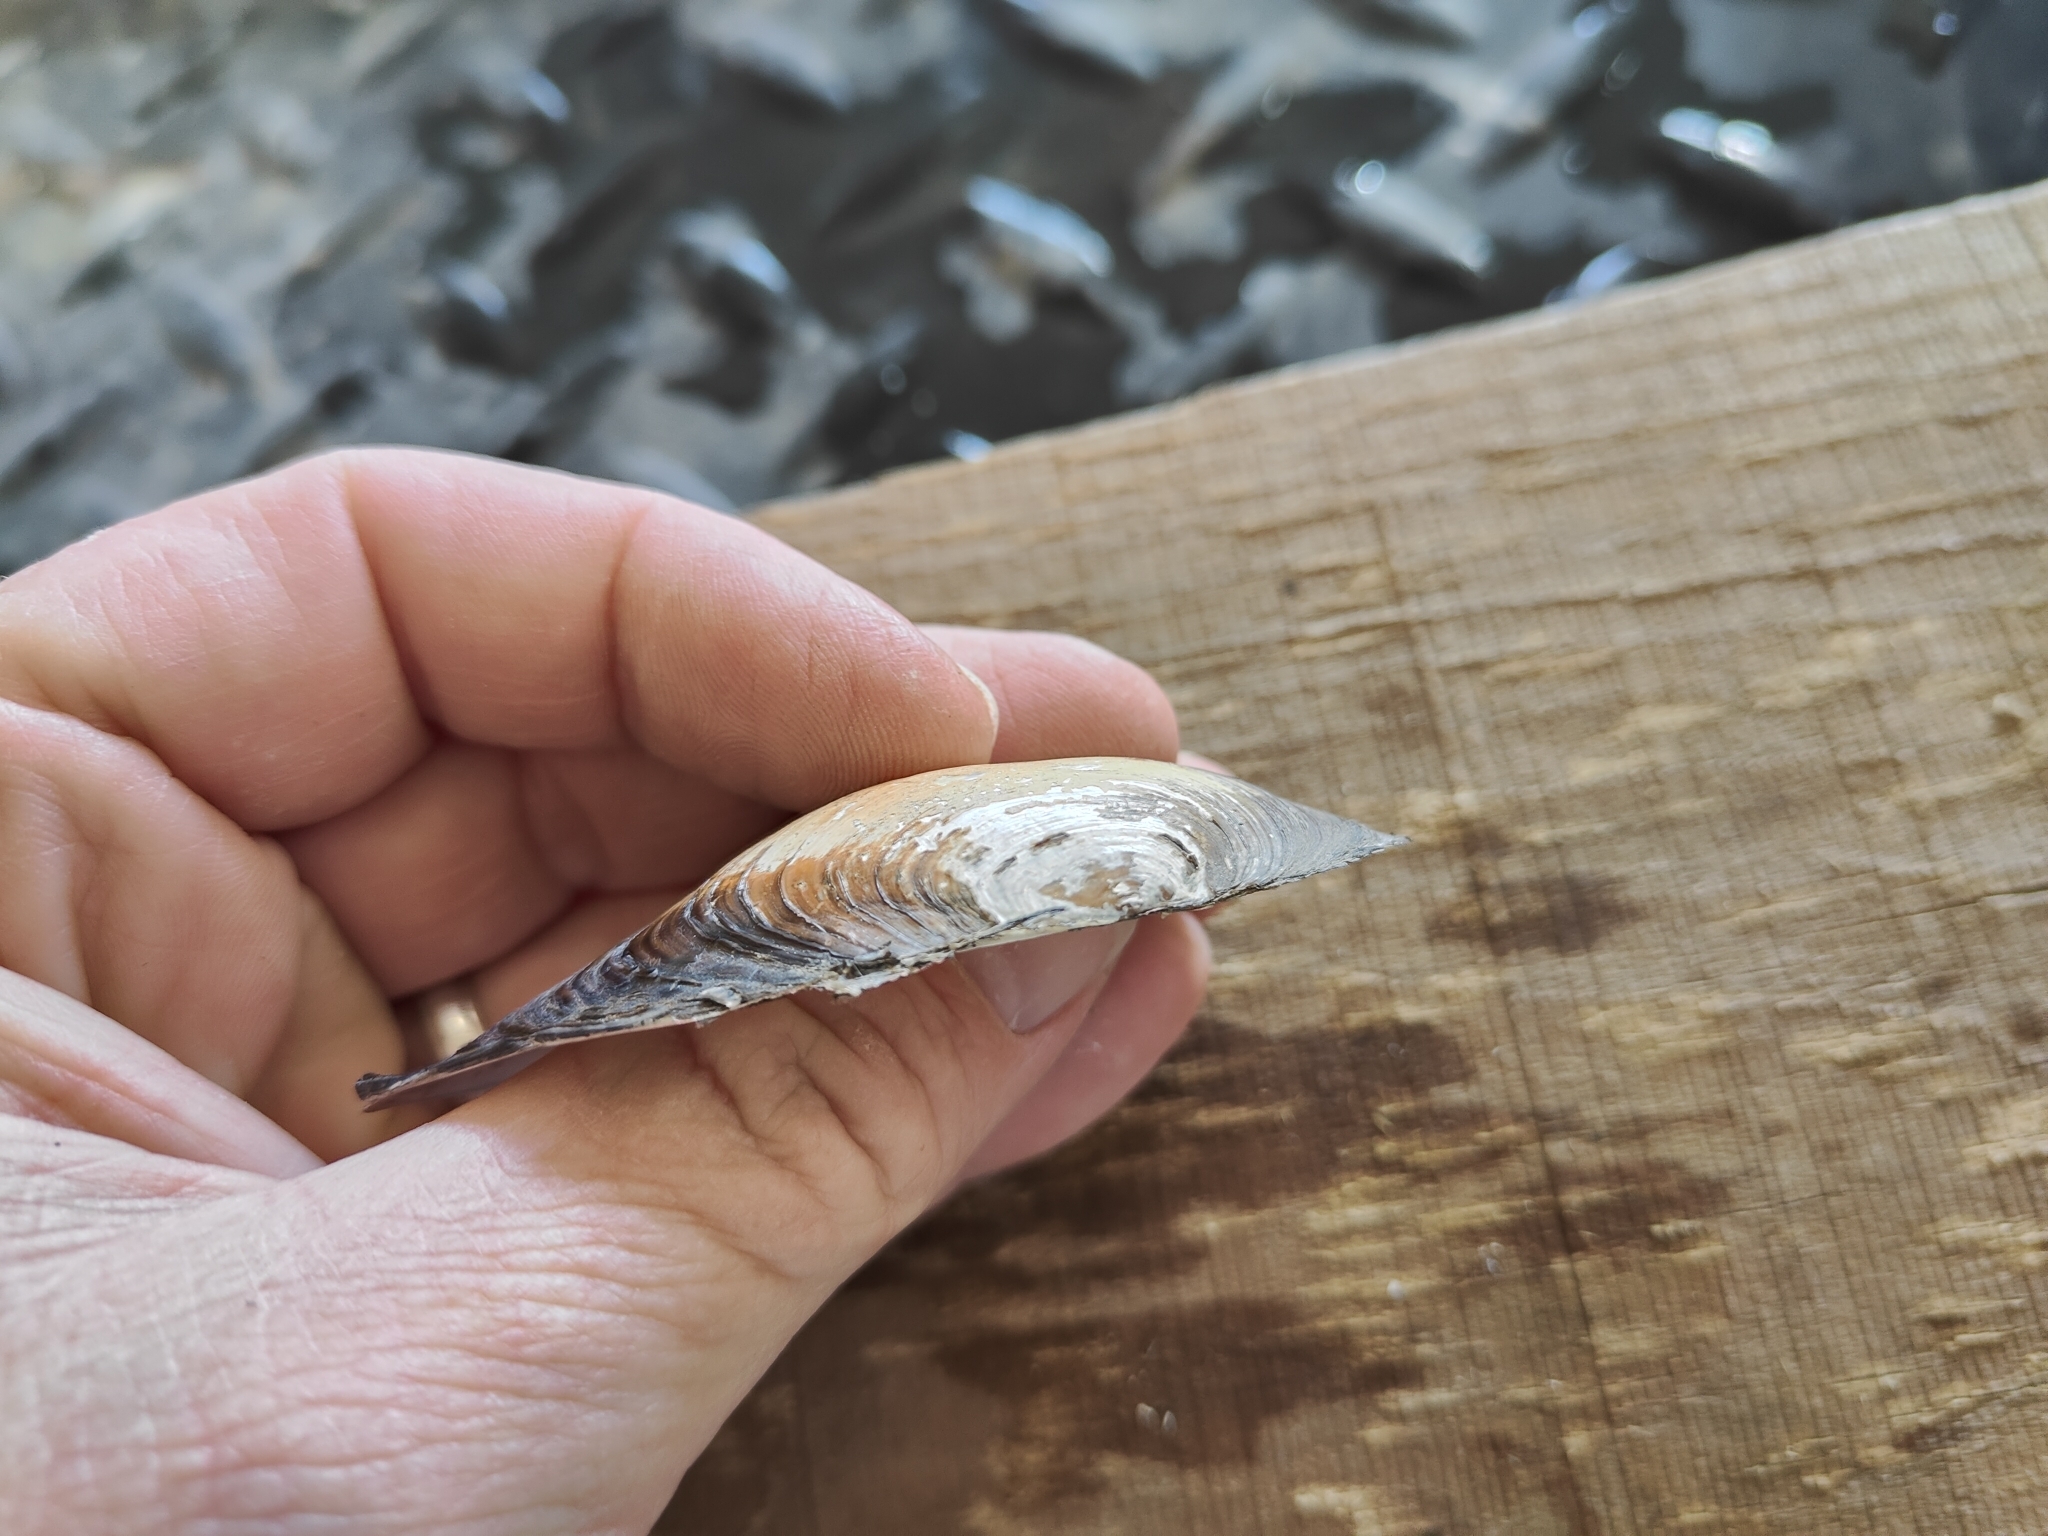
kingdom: Animalia
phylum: Mollusca
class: Bivalvia
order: Unionida
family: Unionidae
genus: Utterbackia
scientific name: Utterbackia imbecillis
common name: Paper pondshell
